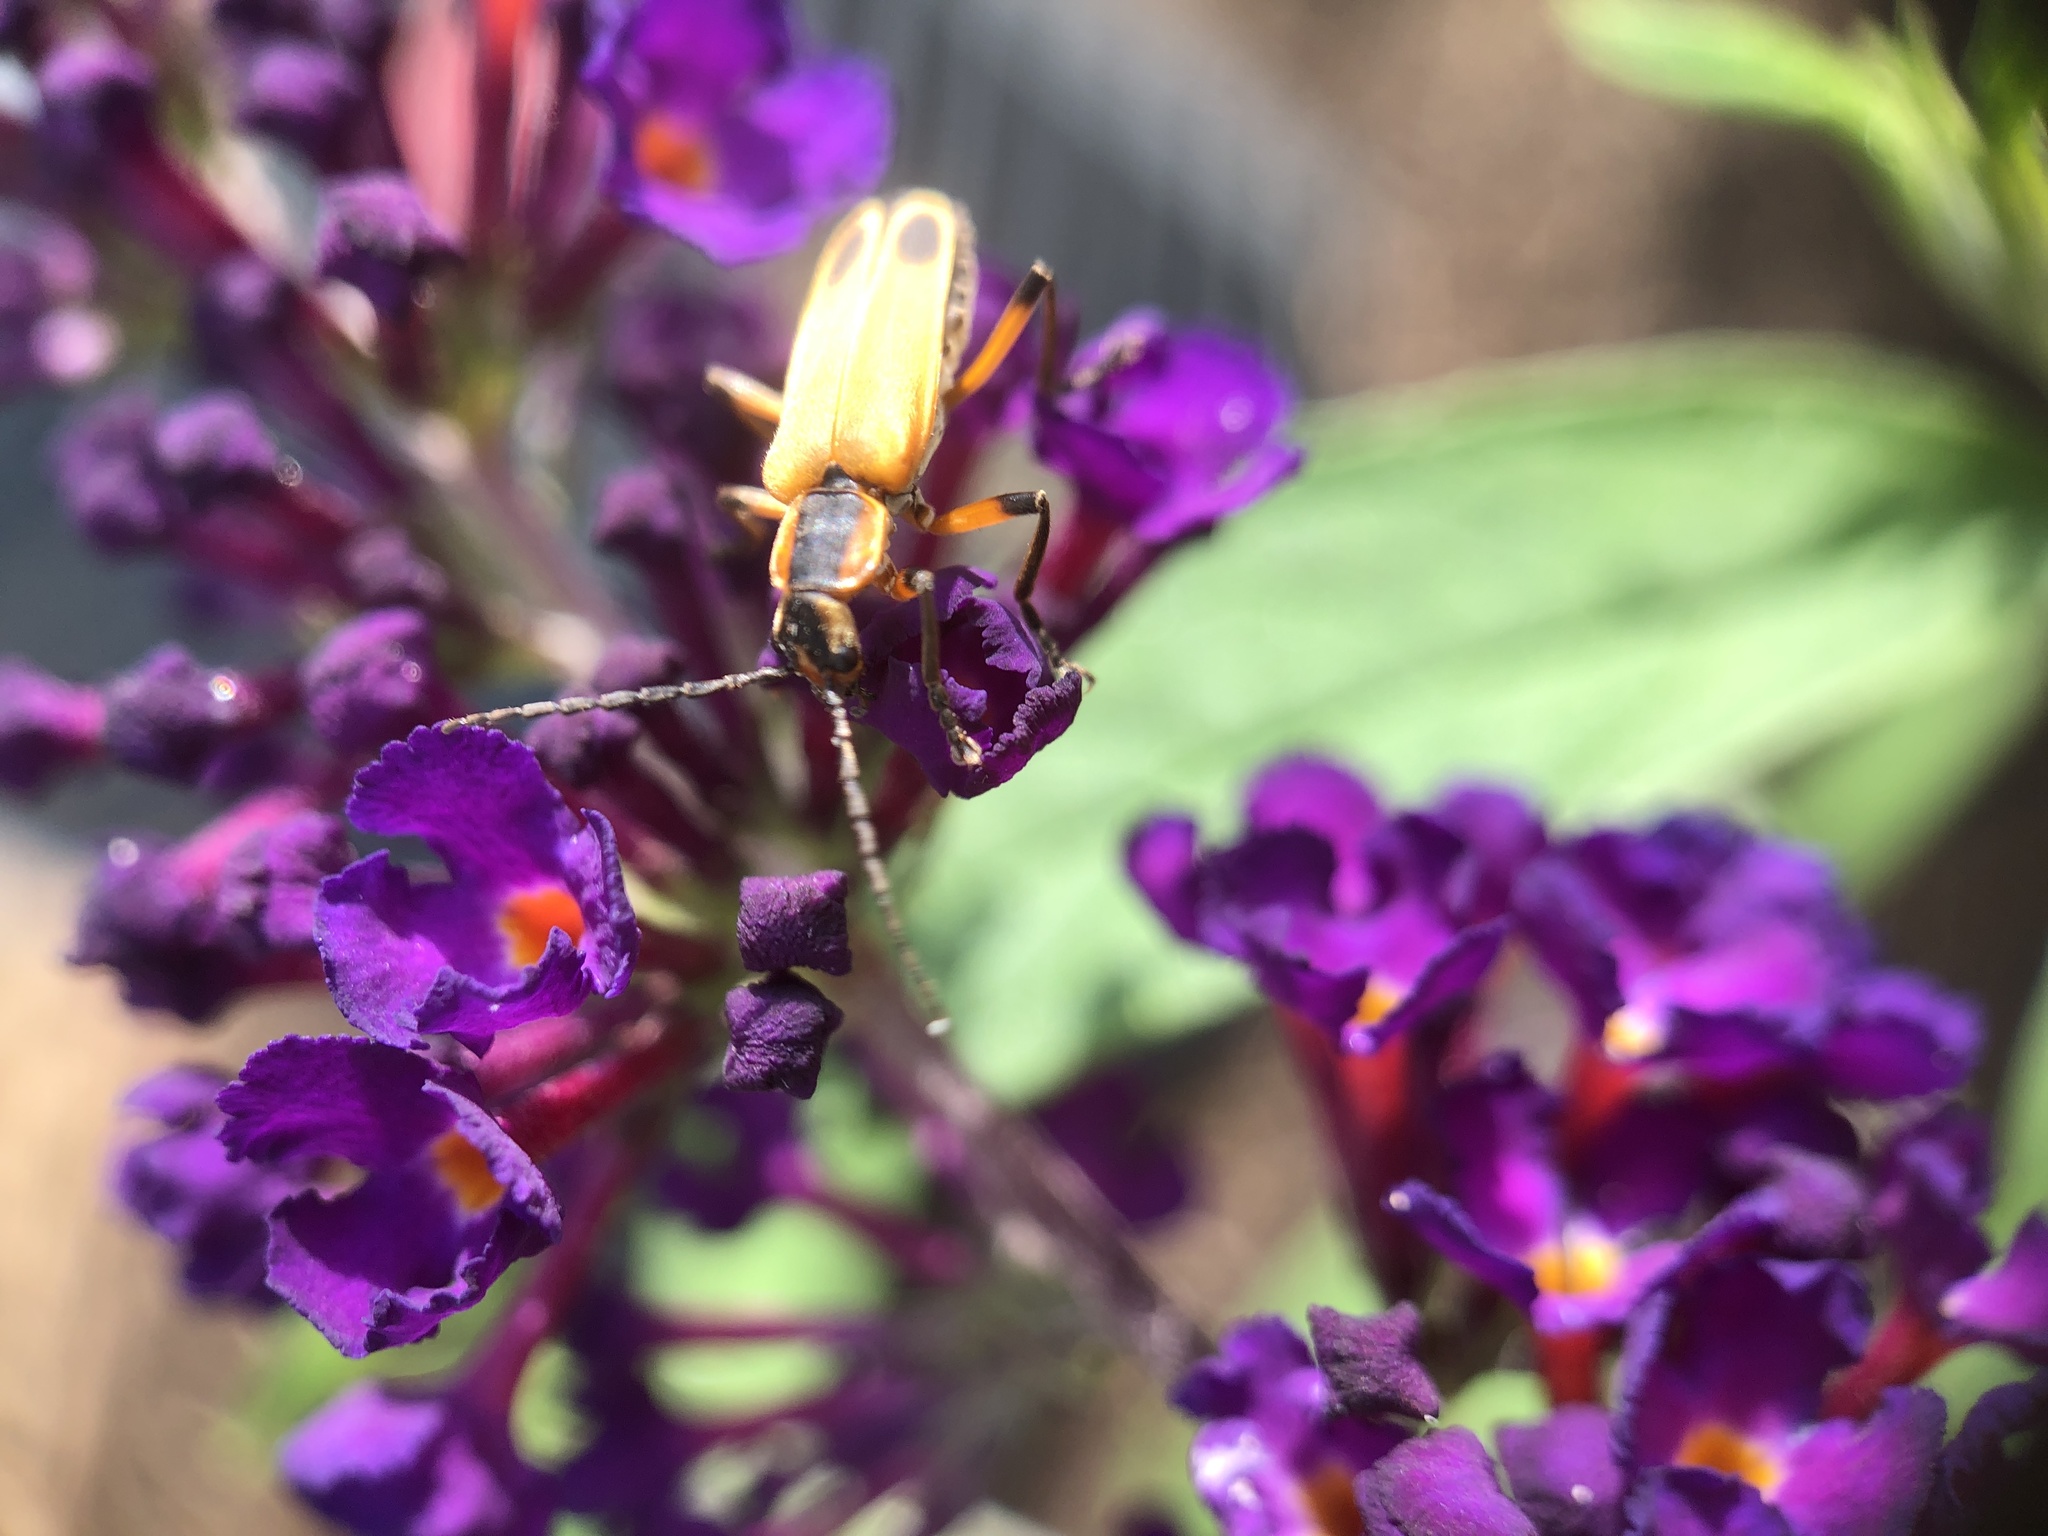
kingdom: Animalia
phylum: Arthropoda
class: Insecta
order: Coleoptera
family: Cantharidae
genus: Chauliognathus
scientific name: Chauliognathus marginatus
